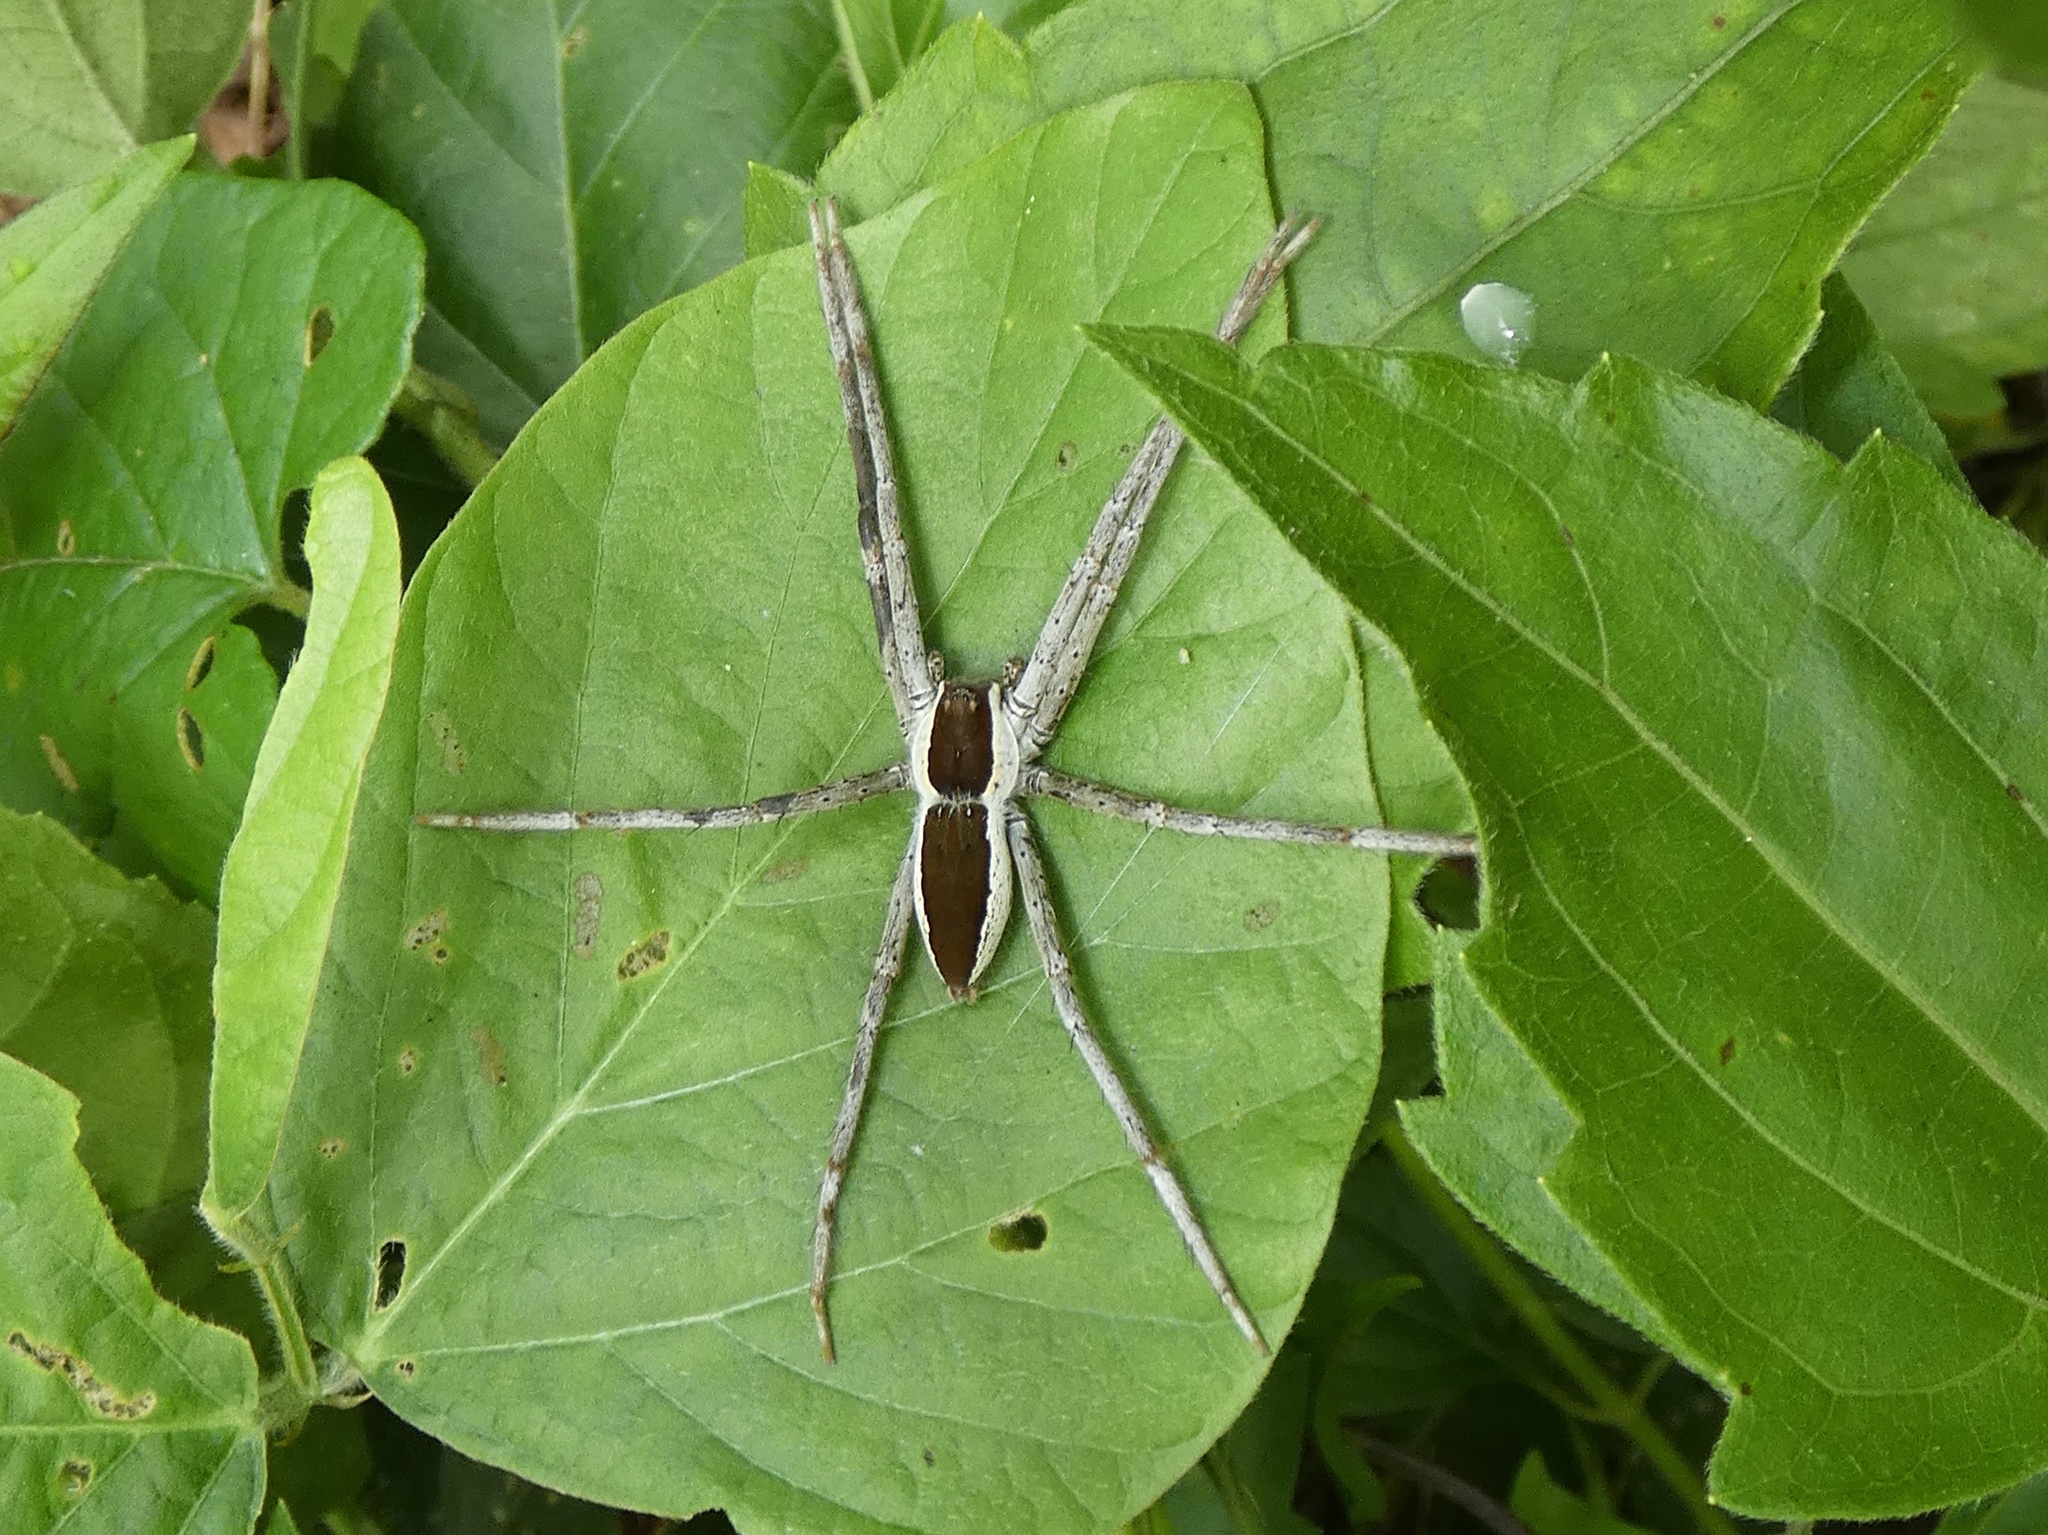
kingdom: Animalia
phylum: Arthropoda
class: Arachnida
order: Araneae
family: Pisauridae
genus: Nilus
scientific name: Nilus albocinctus
